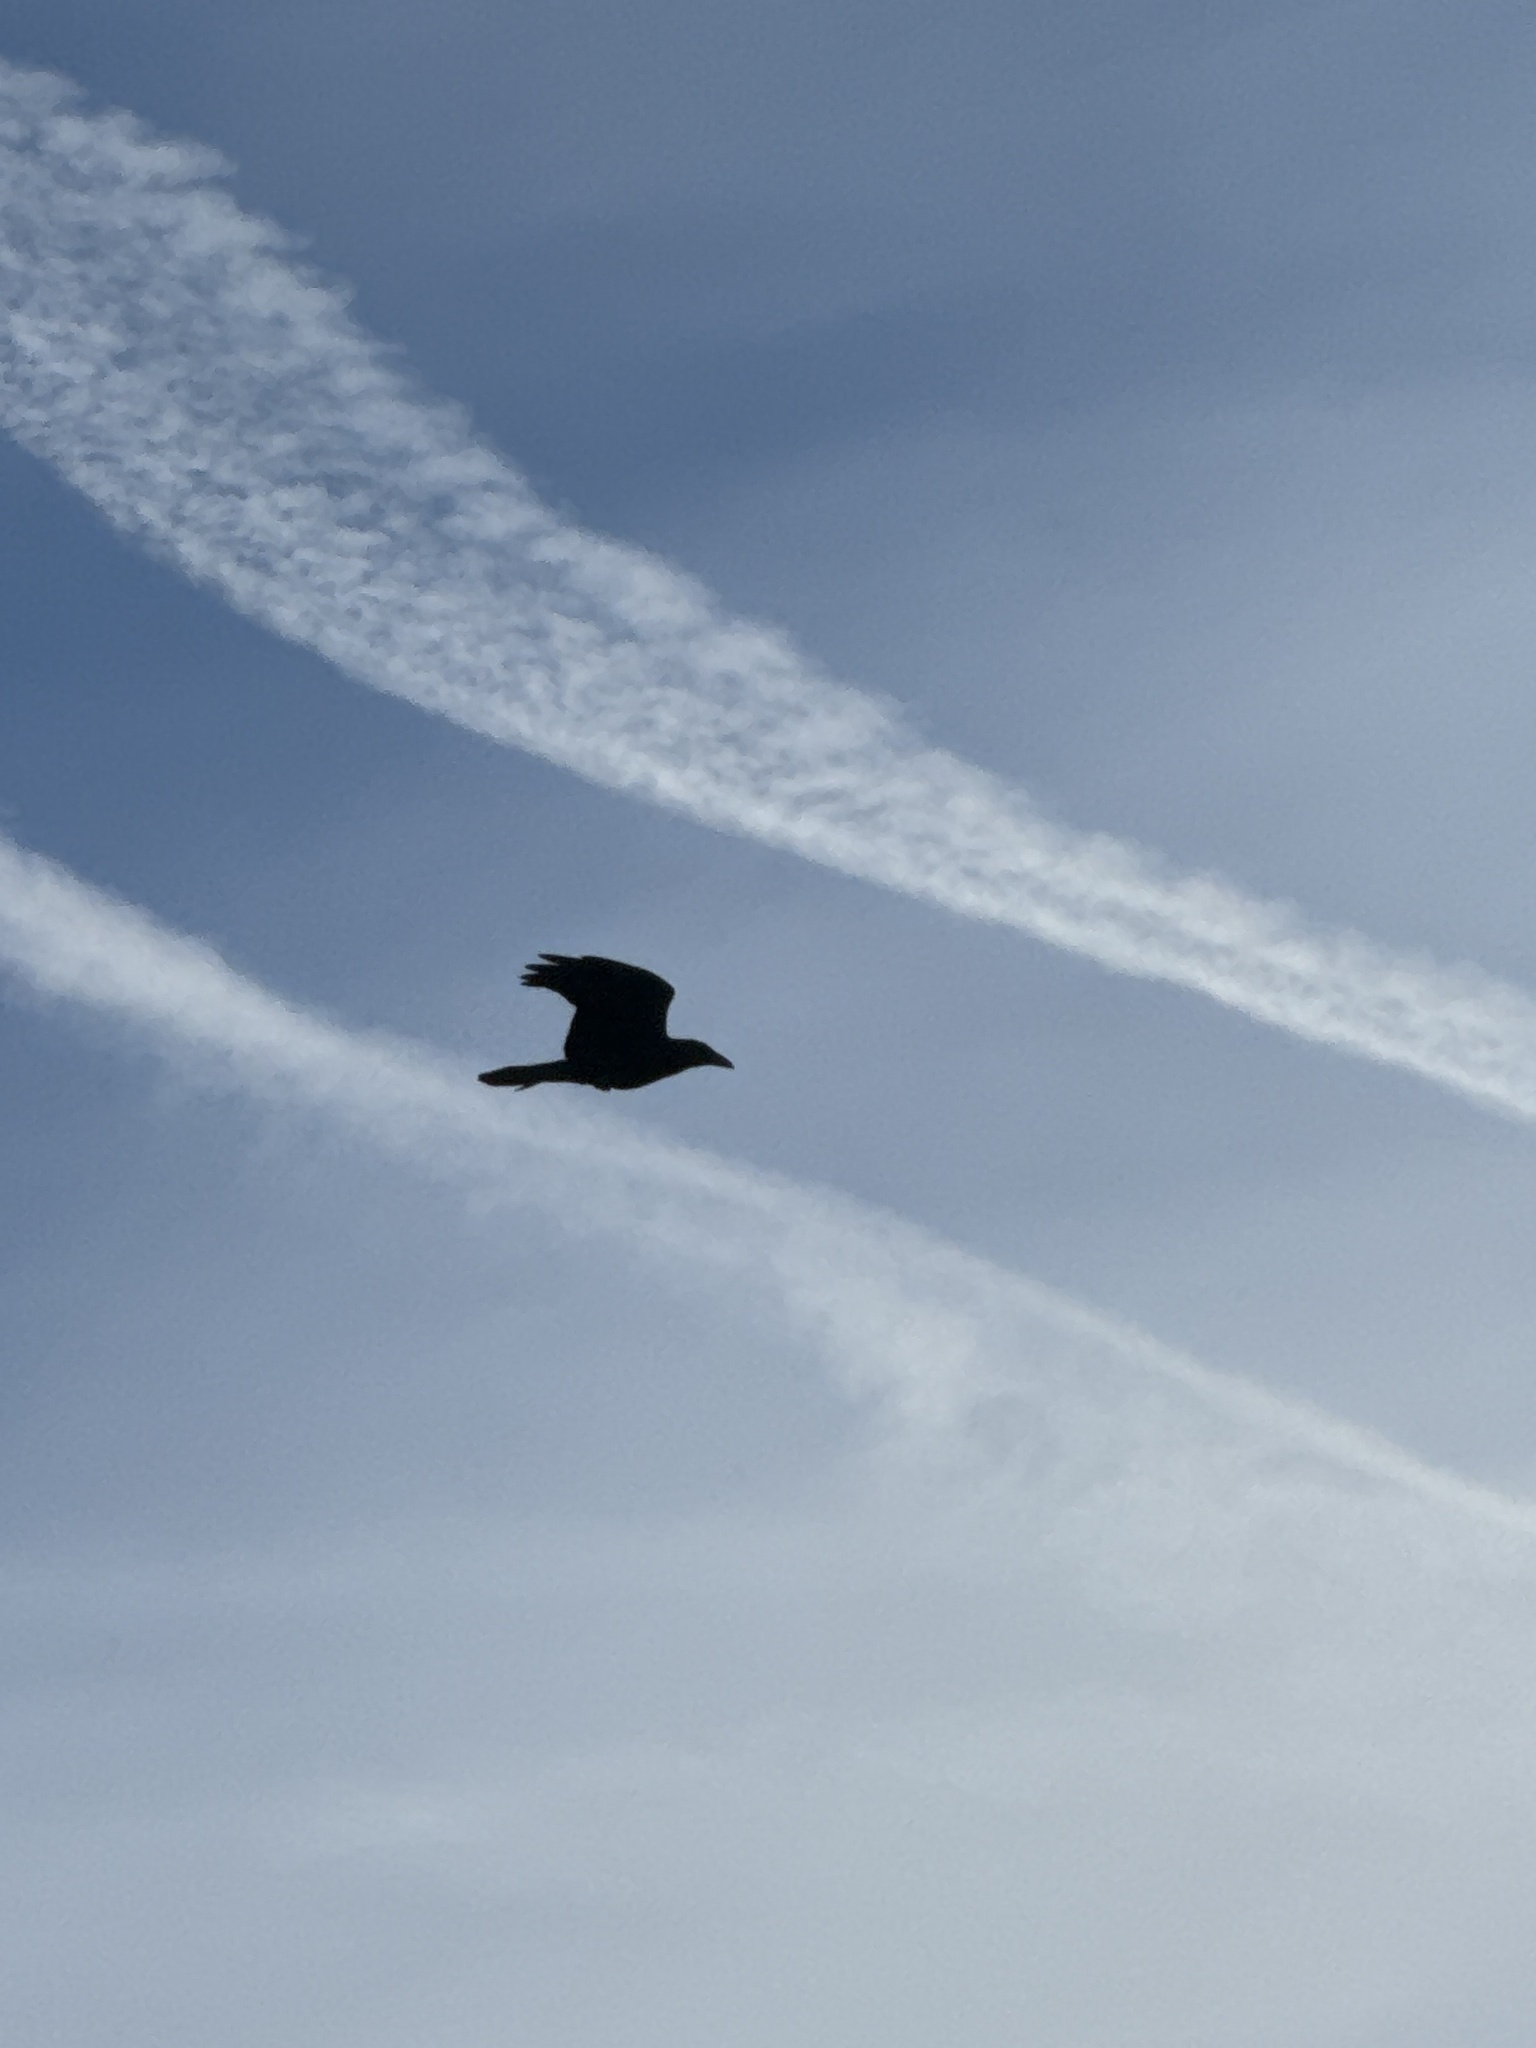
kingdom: Animalia
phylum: Chordata
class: Aves
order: Passeriformes
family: Corvidae
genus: Corvus
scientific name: Corvus corax
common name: Common raven
